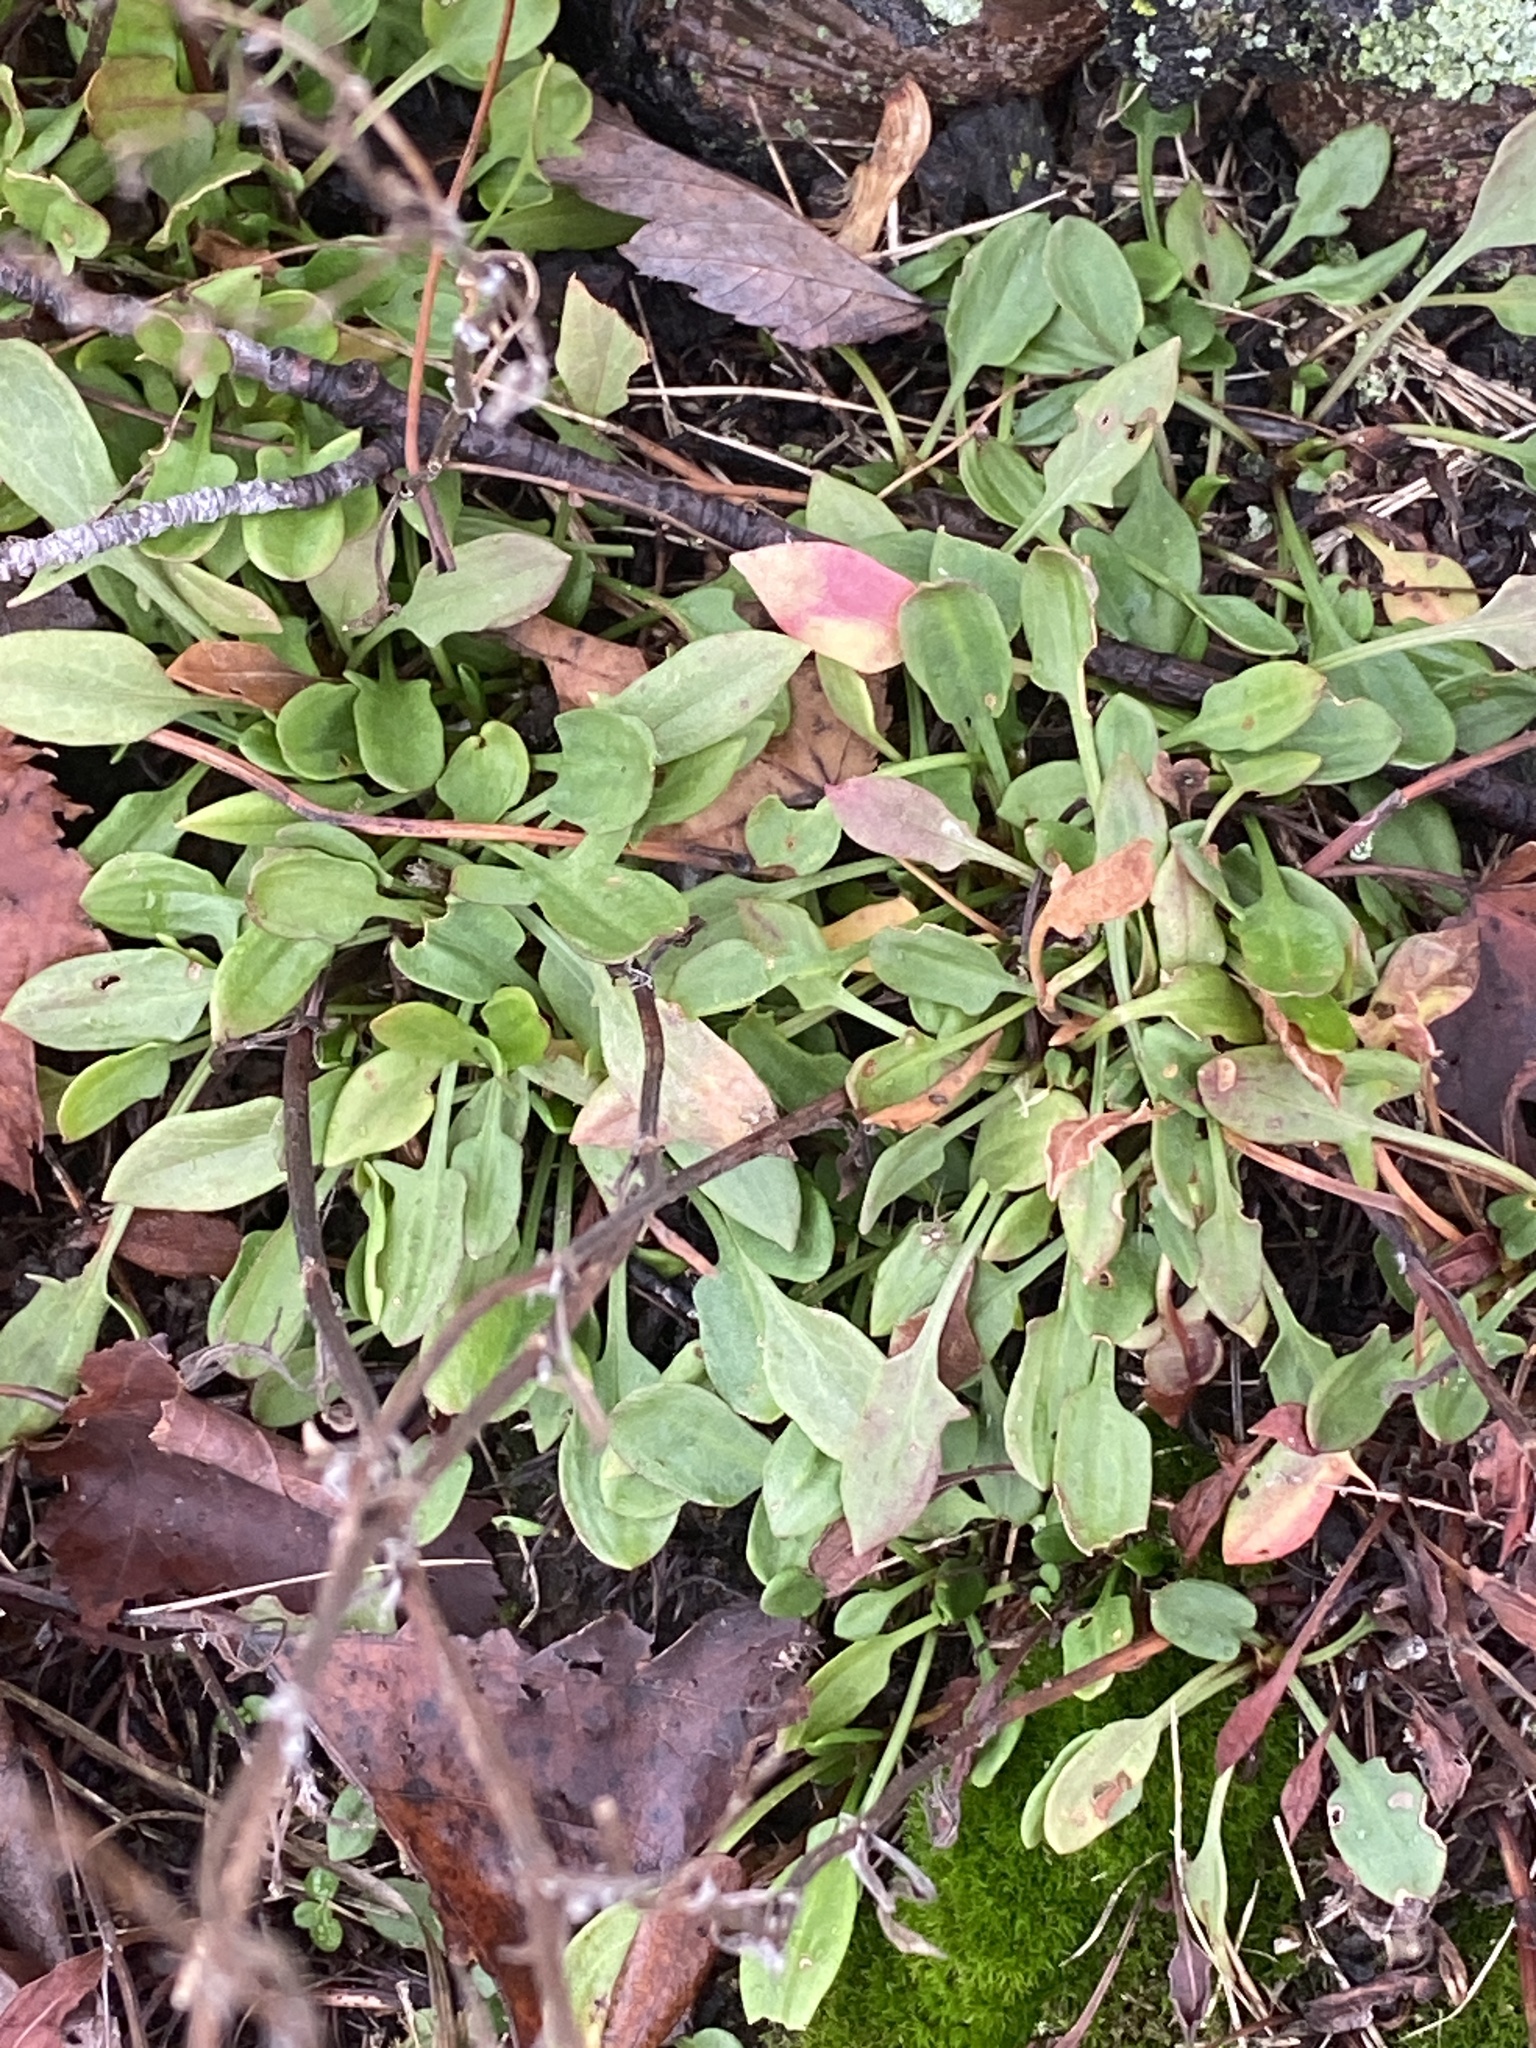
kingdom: Plantae
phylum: Tracheophyta
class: Magnoliopsida
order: Caryophyllales
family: Polygonaceae
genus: Rumex
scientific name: Rumex acetosella
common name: Common sheep sorrel
